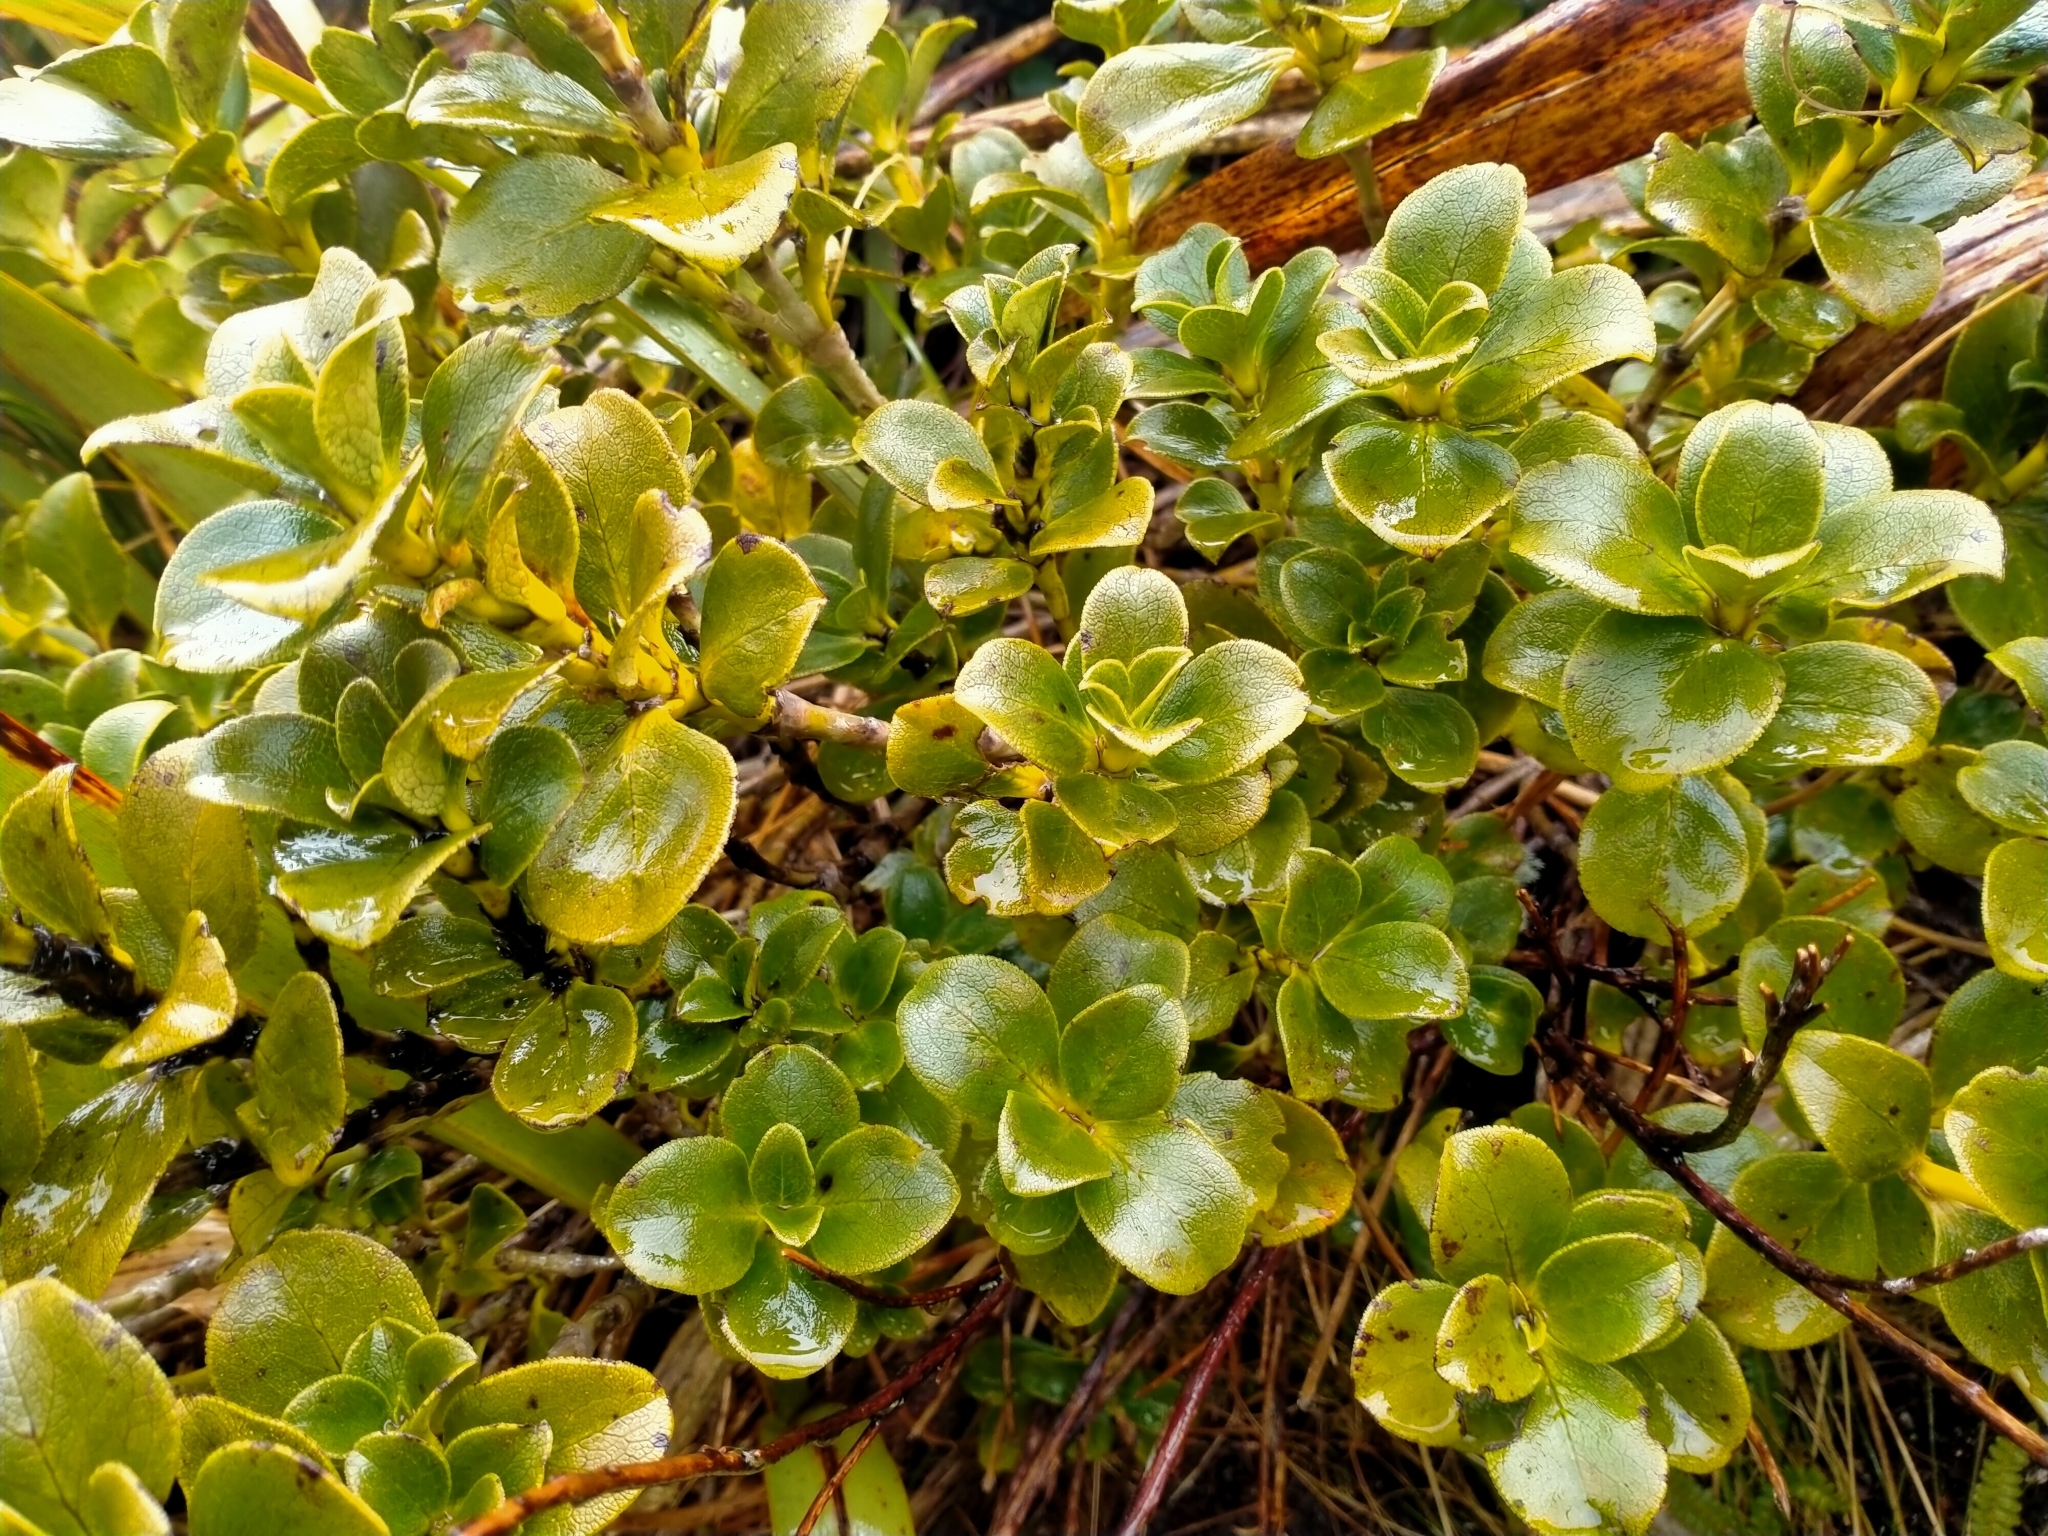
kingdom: Plantae
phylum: Tracheophyta
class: Magnoliopsida
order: Gentianales
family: Rubiaceae
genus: Coprosma
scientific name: Coprosma serrulata
